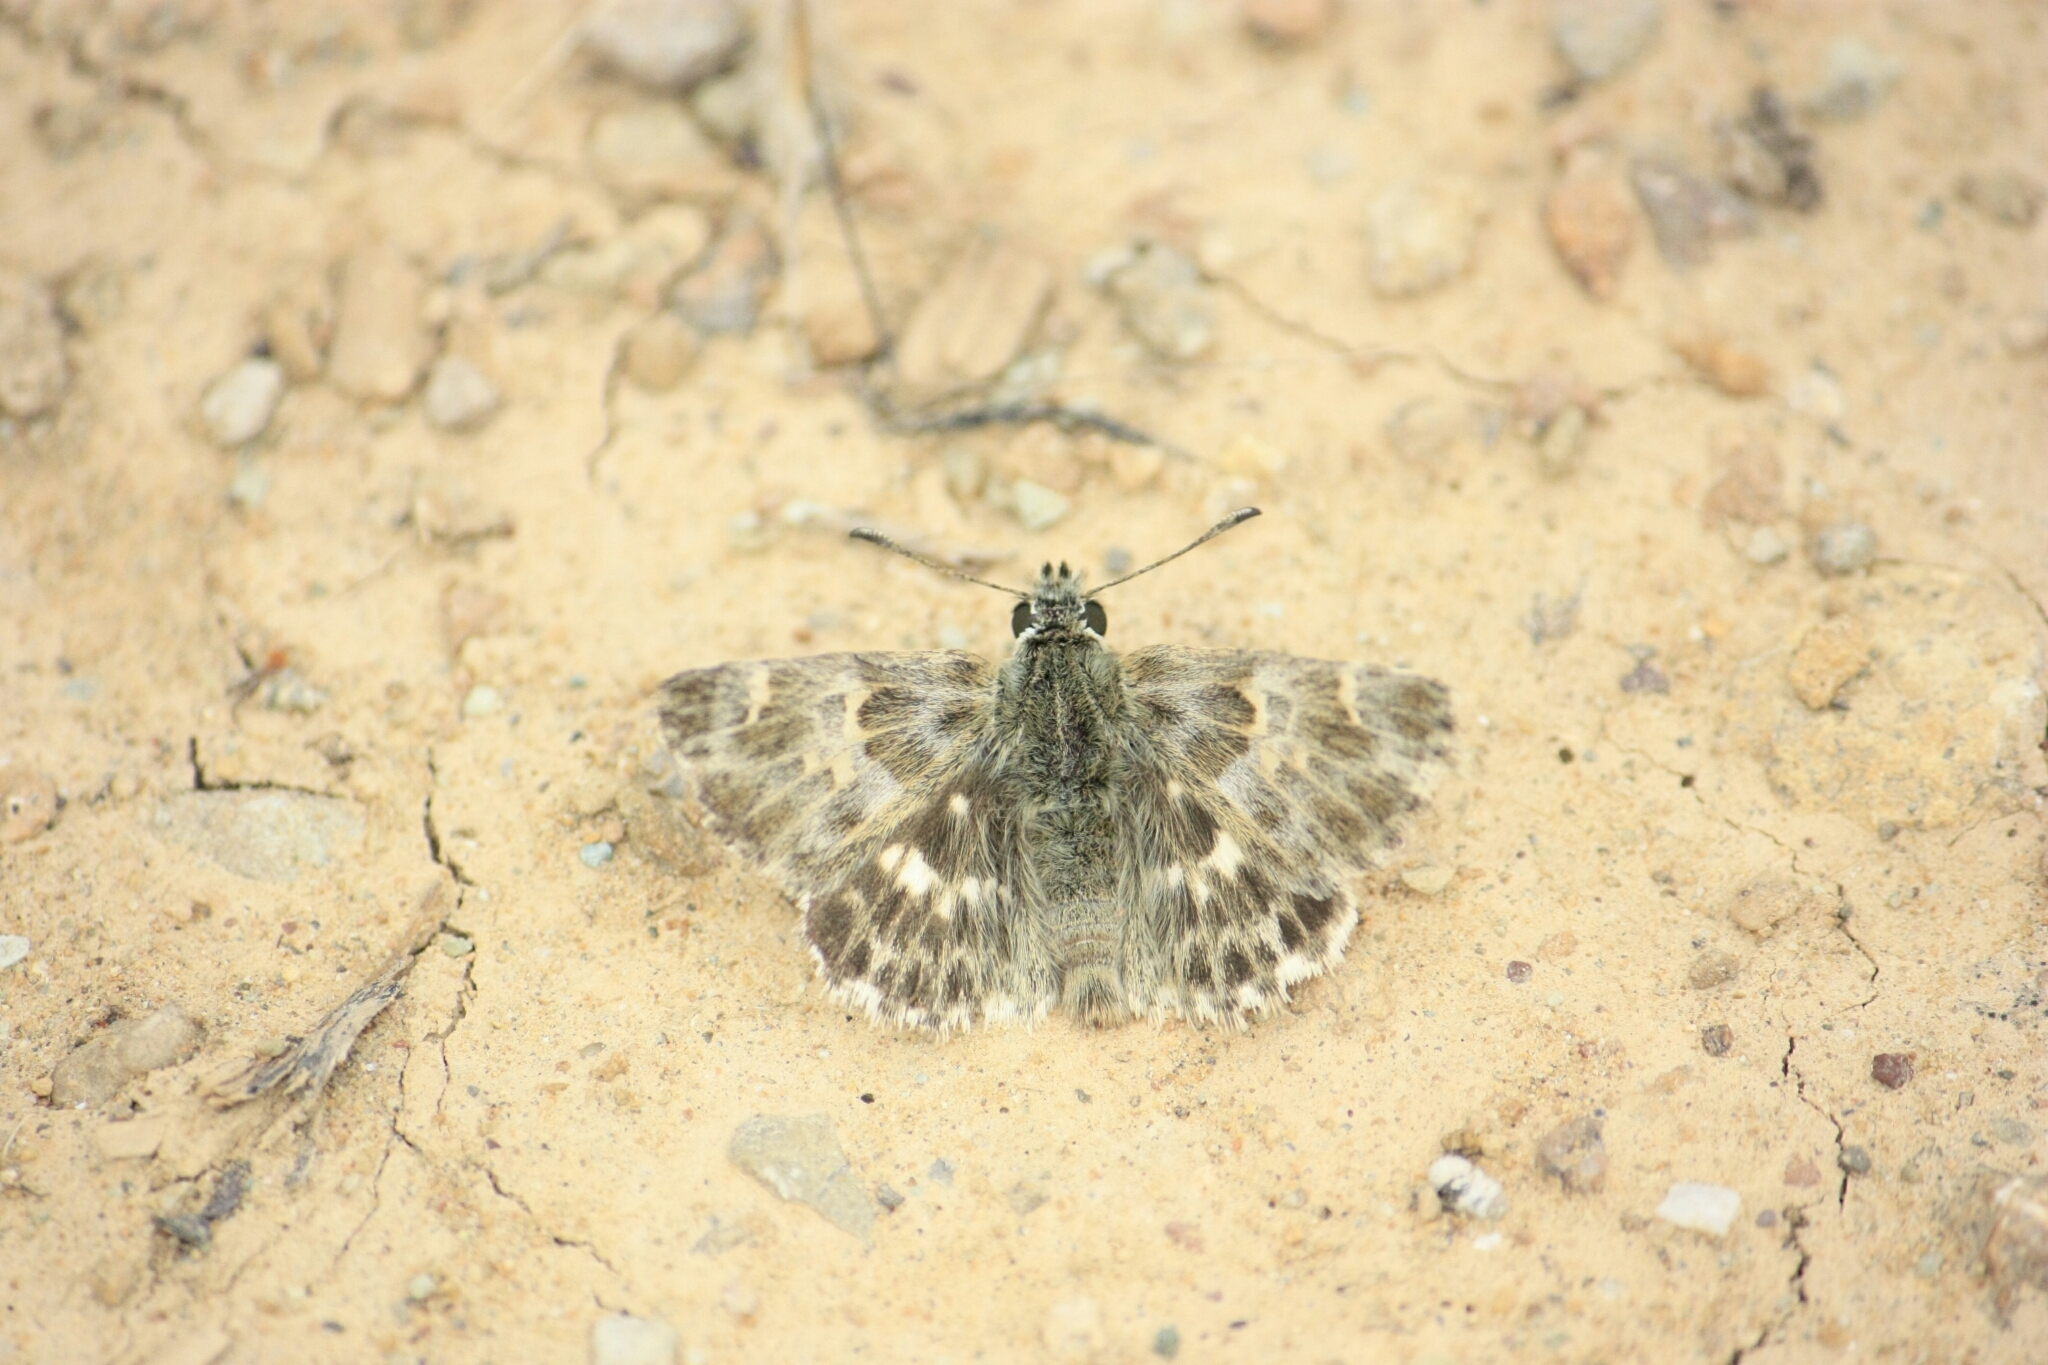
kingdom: Animalia
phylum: Arthropoda
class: Insecta
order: Lepidoptera
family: Hesperiidae
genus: Syrichtus
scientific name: Syrichtus Muschampia baeticus
